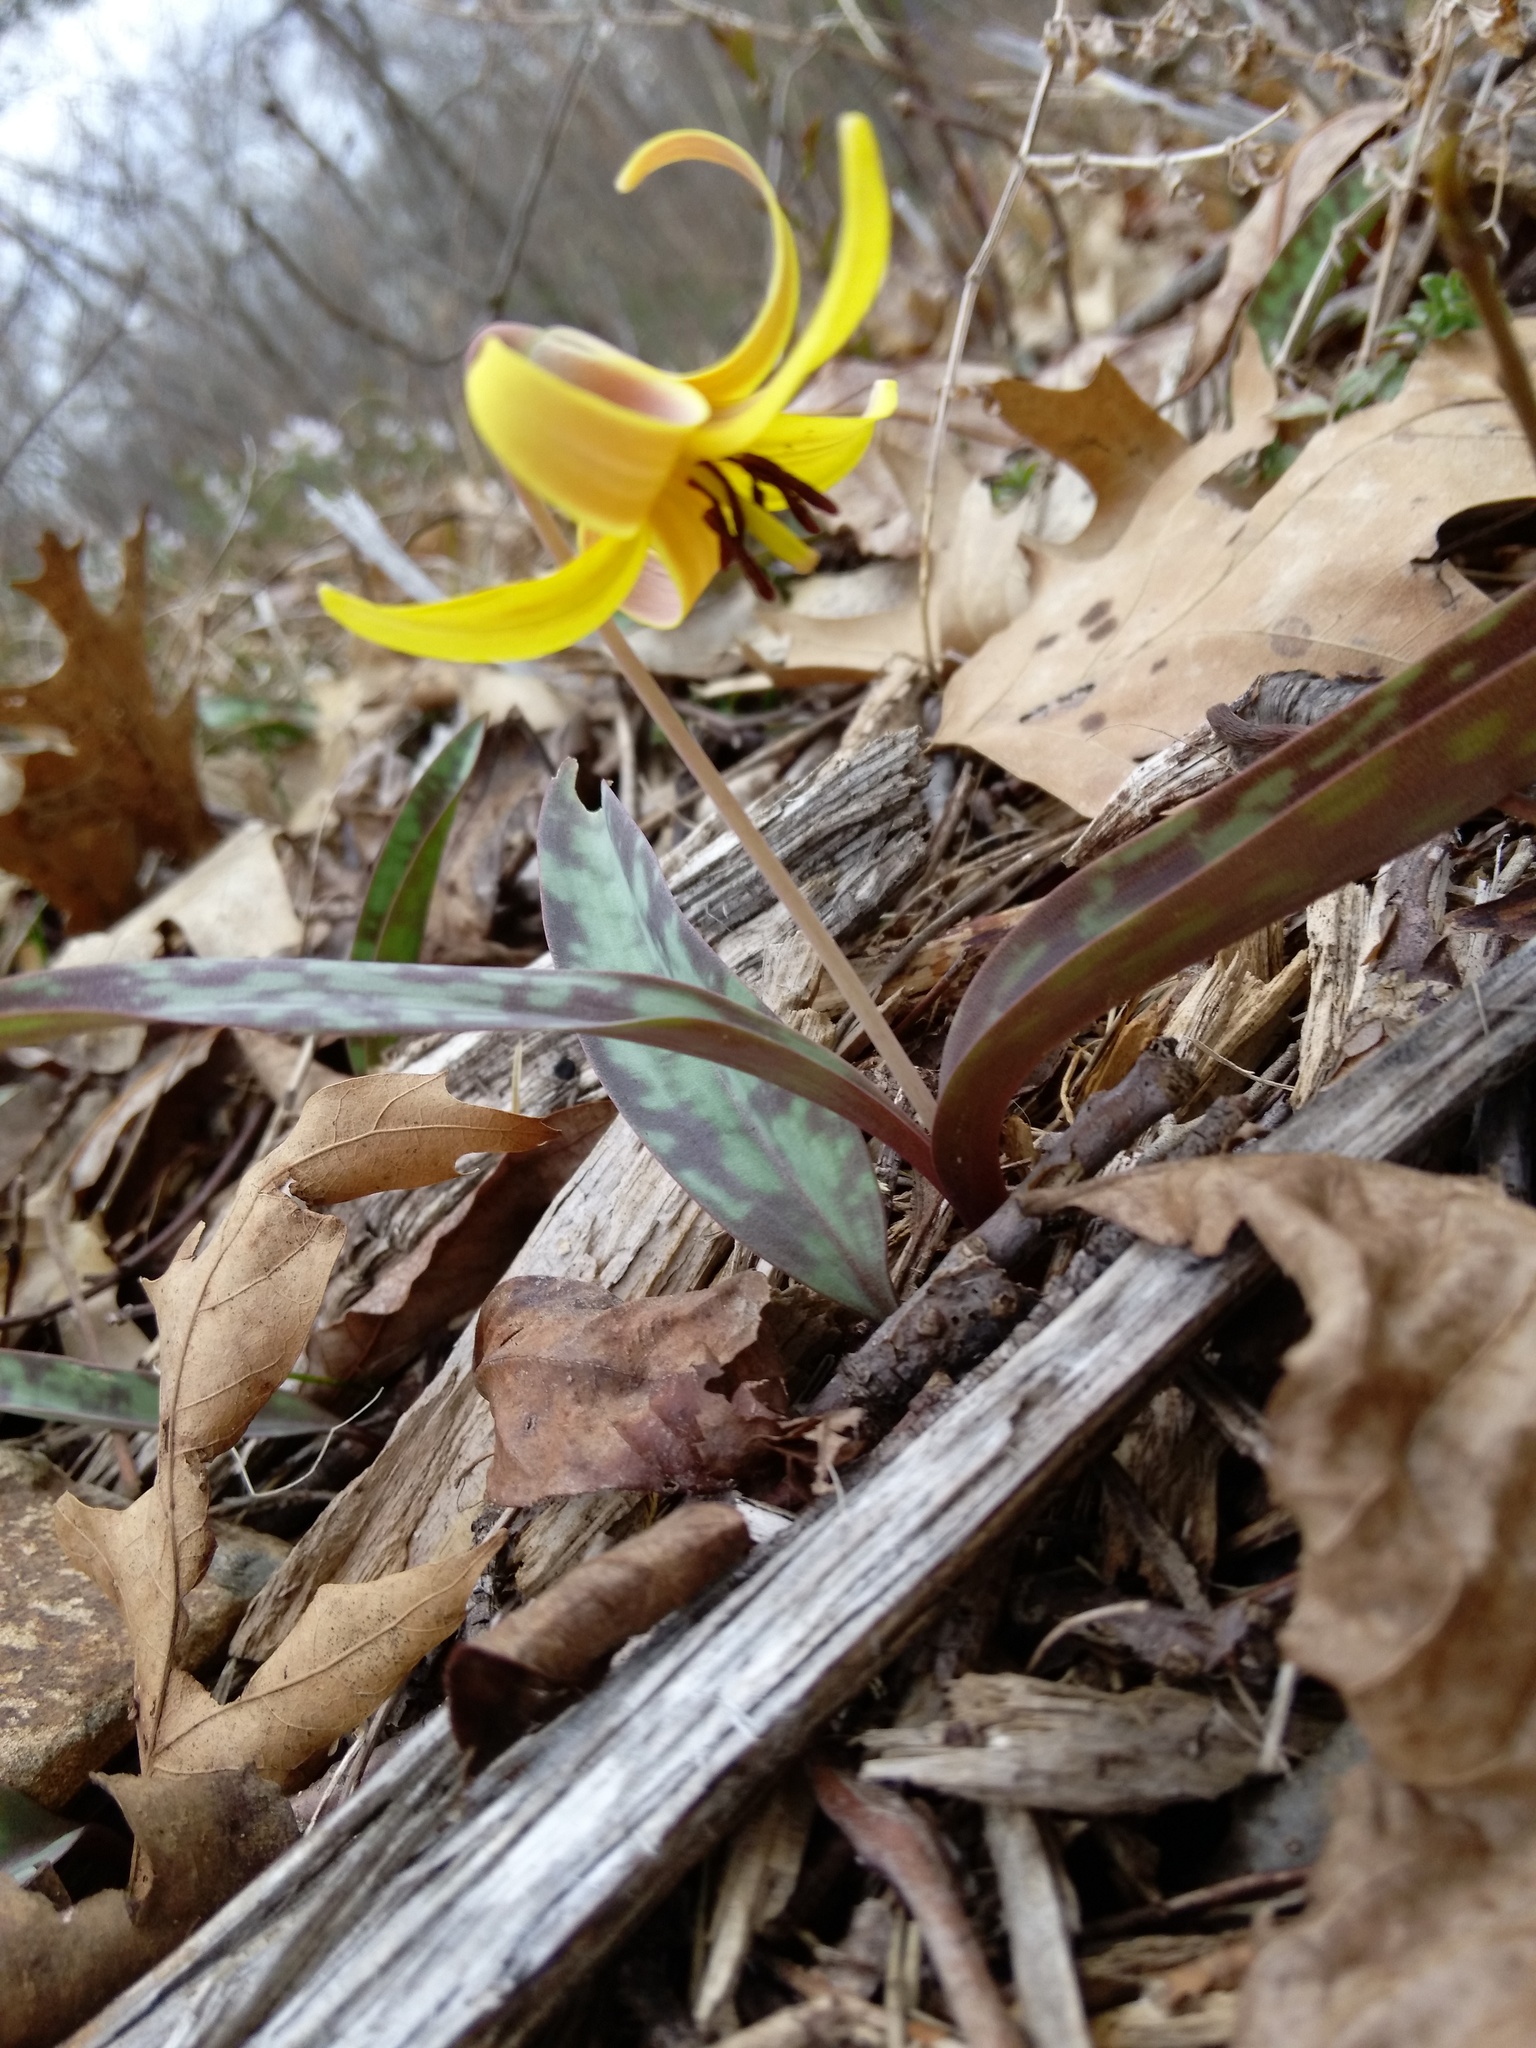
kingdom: Plantae
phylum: Tracheophyta
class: Liliopsida
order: Liliales
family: Liliaceae
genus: Erythronium
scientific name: Erythronium americanum
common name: Yellow adder's-tongue
